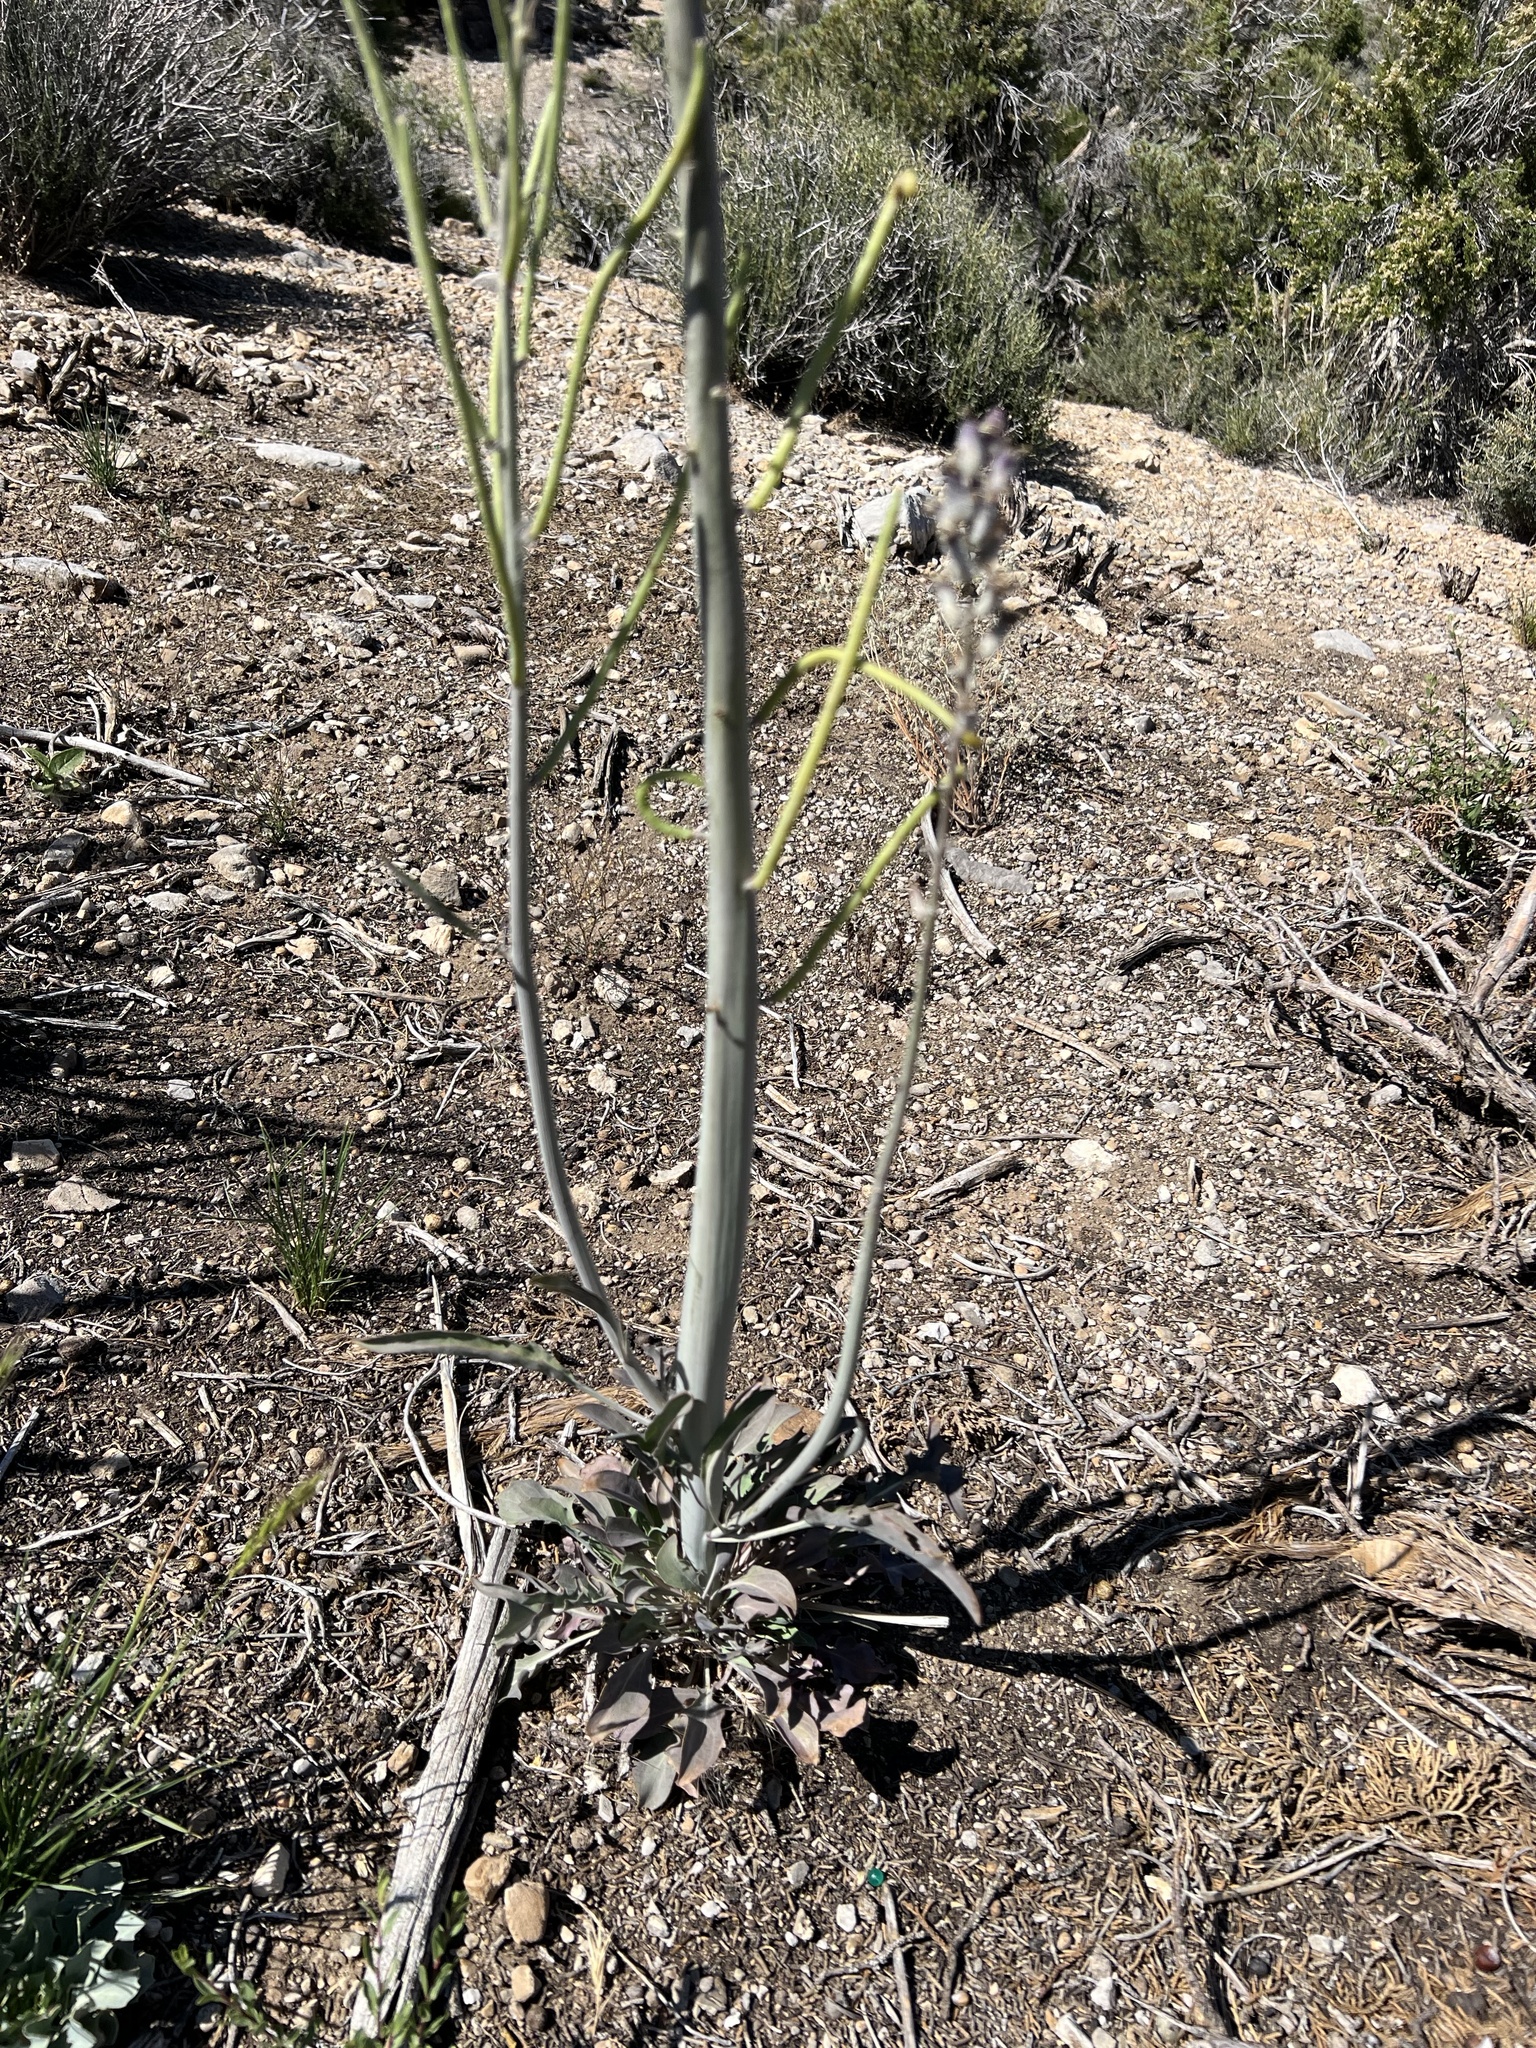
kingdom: Plantae
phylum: Tracheophyta
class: Magnoliopsida
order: Brassicales
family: Brassicaceae
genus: Streptanthus
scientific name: Streptanthus crassicaulis
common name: Thick-stem wild cabbage
